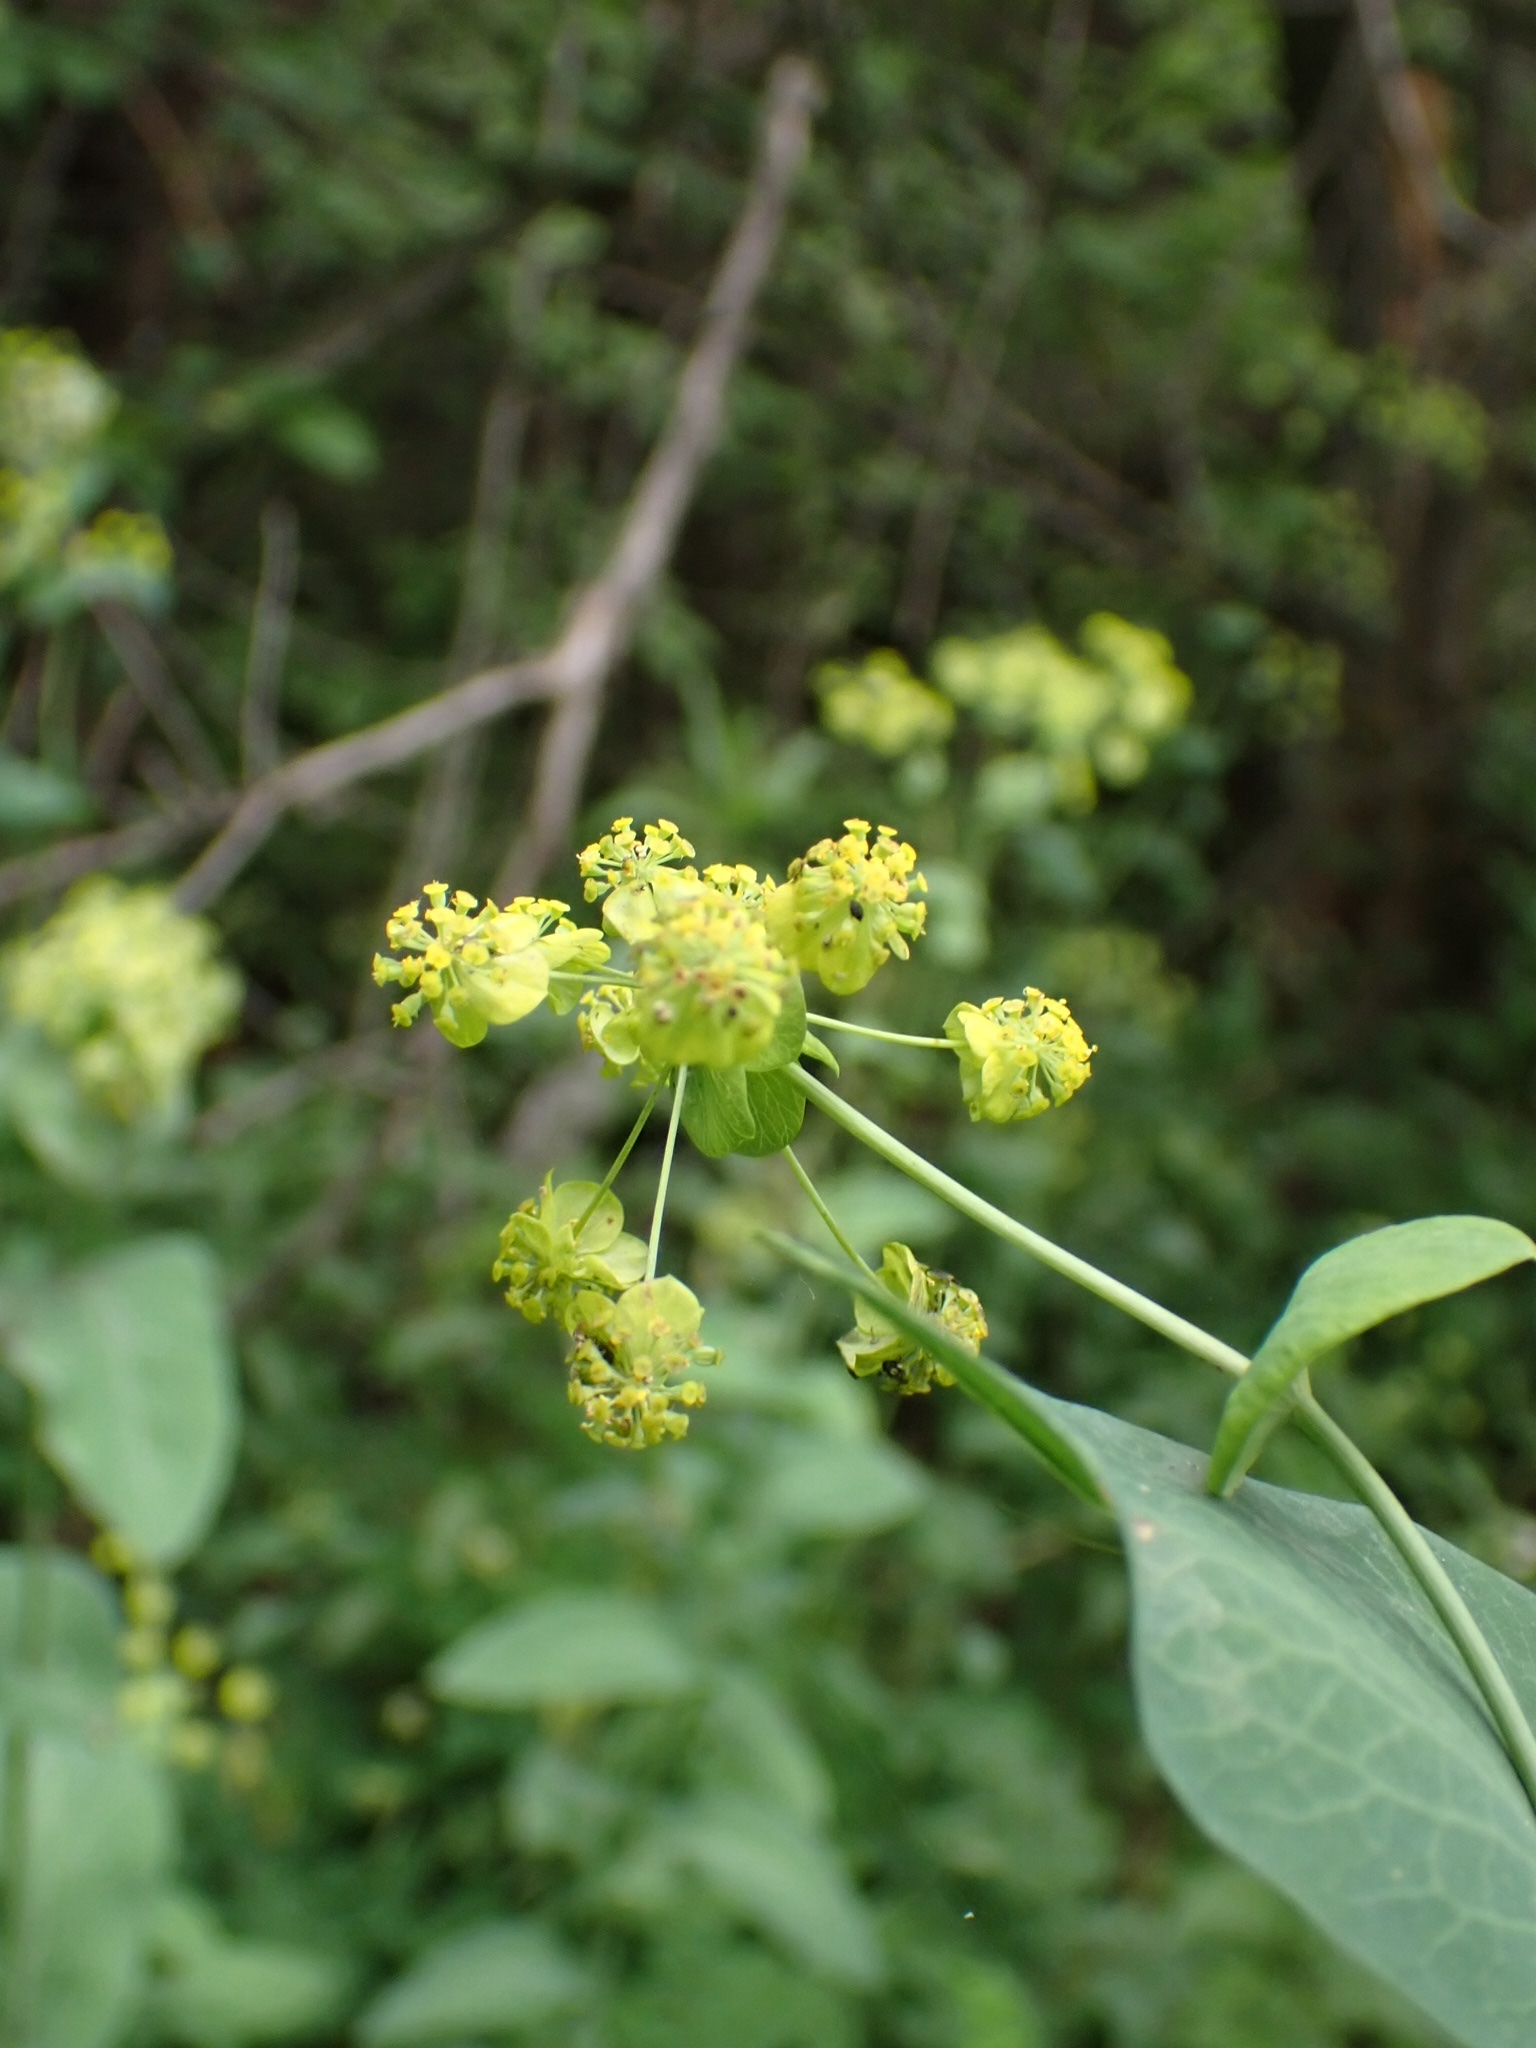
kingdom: Plantae
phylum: Tracheophyta
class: Magnoliopsida
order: Apiales
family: Apiaceae
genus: Bupleurum
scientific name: Bupleurum aureum
